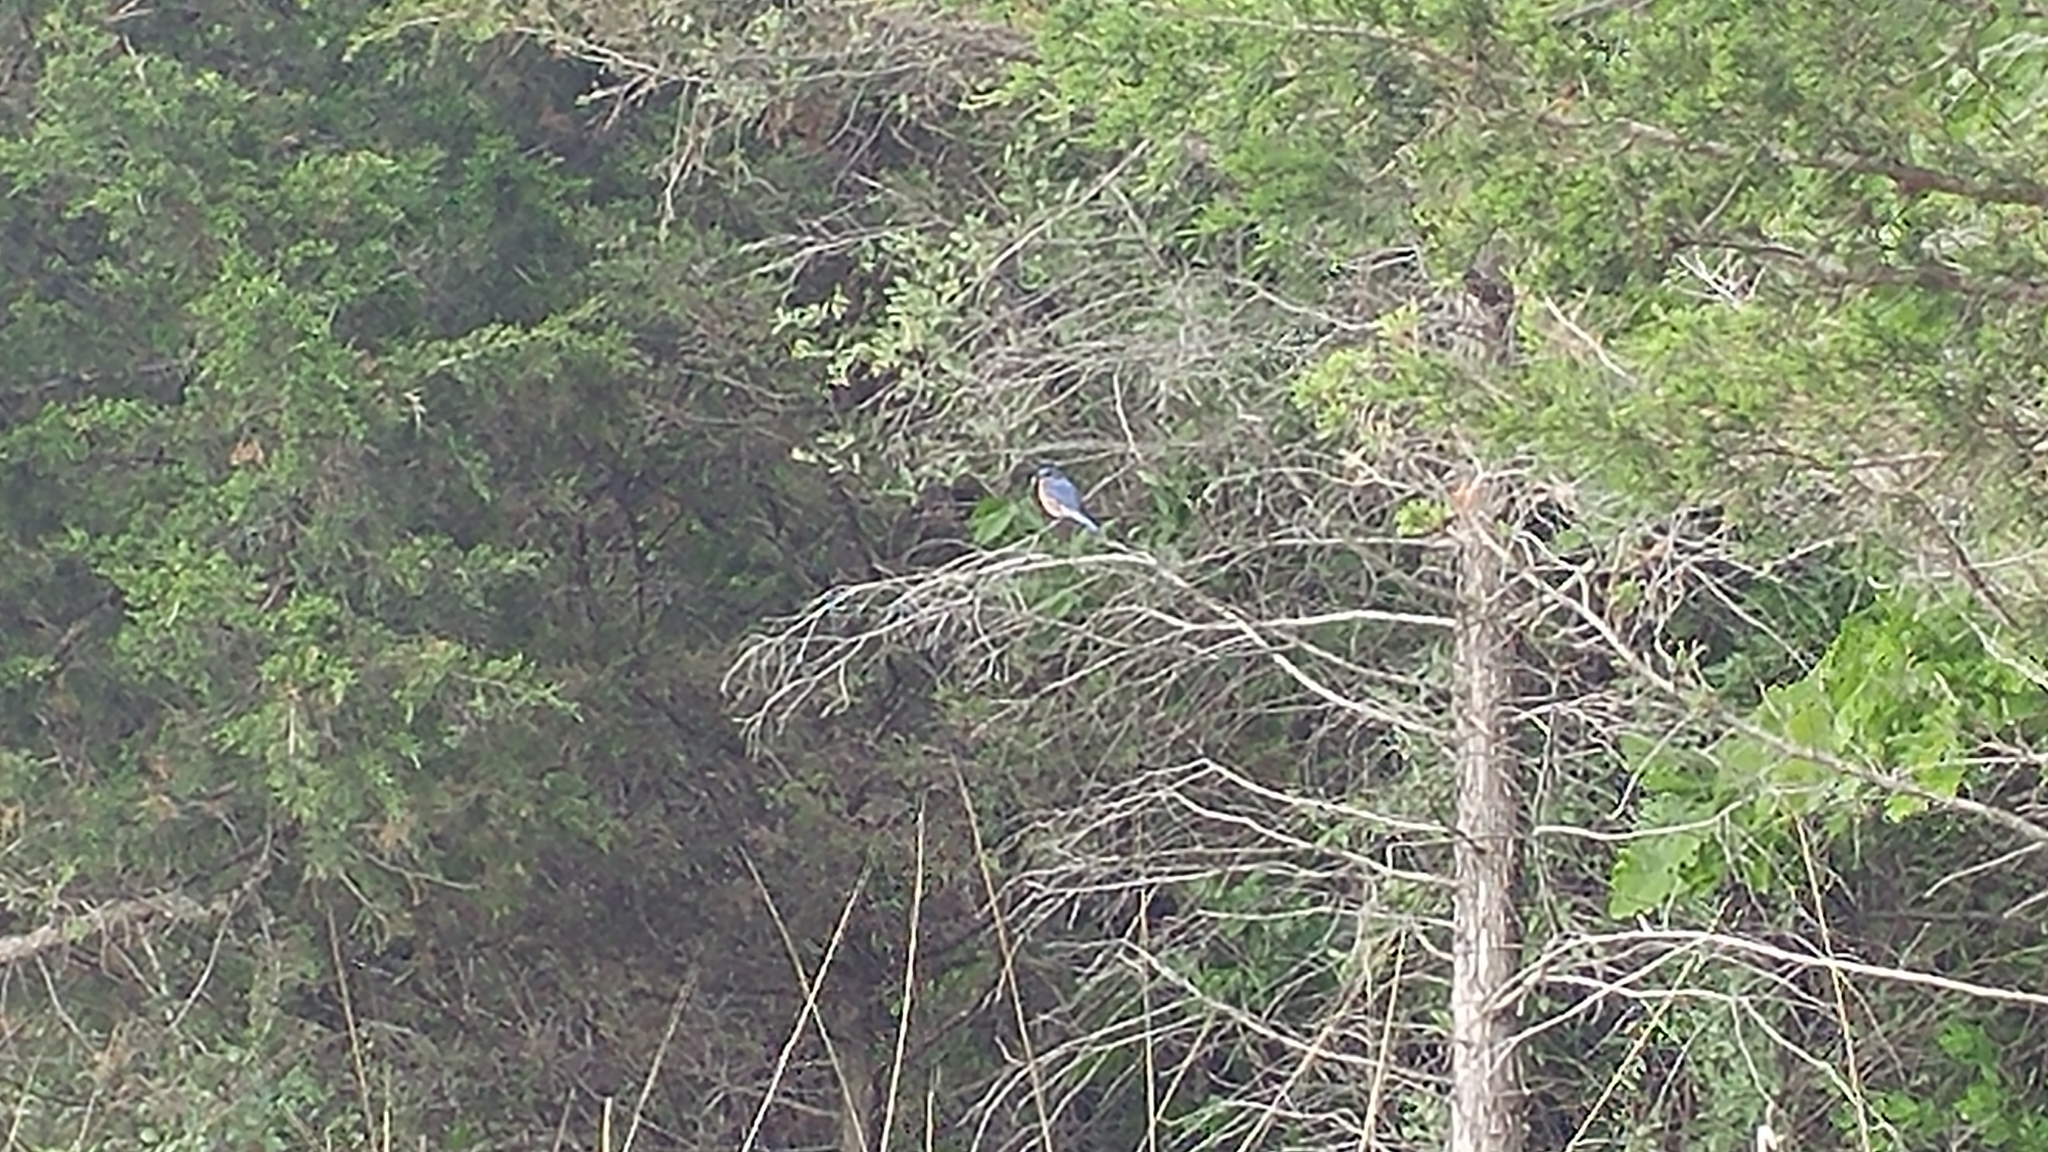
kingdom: Animalia
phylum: Chordata
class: Aves
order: Passeriformes
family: Turdidae
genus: Sialia
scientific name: Sialia sialis
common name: Eastern bluebird
